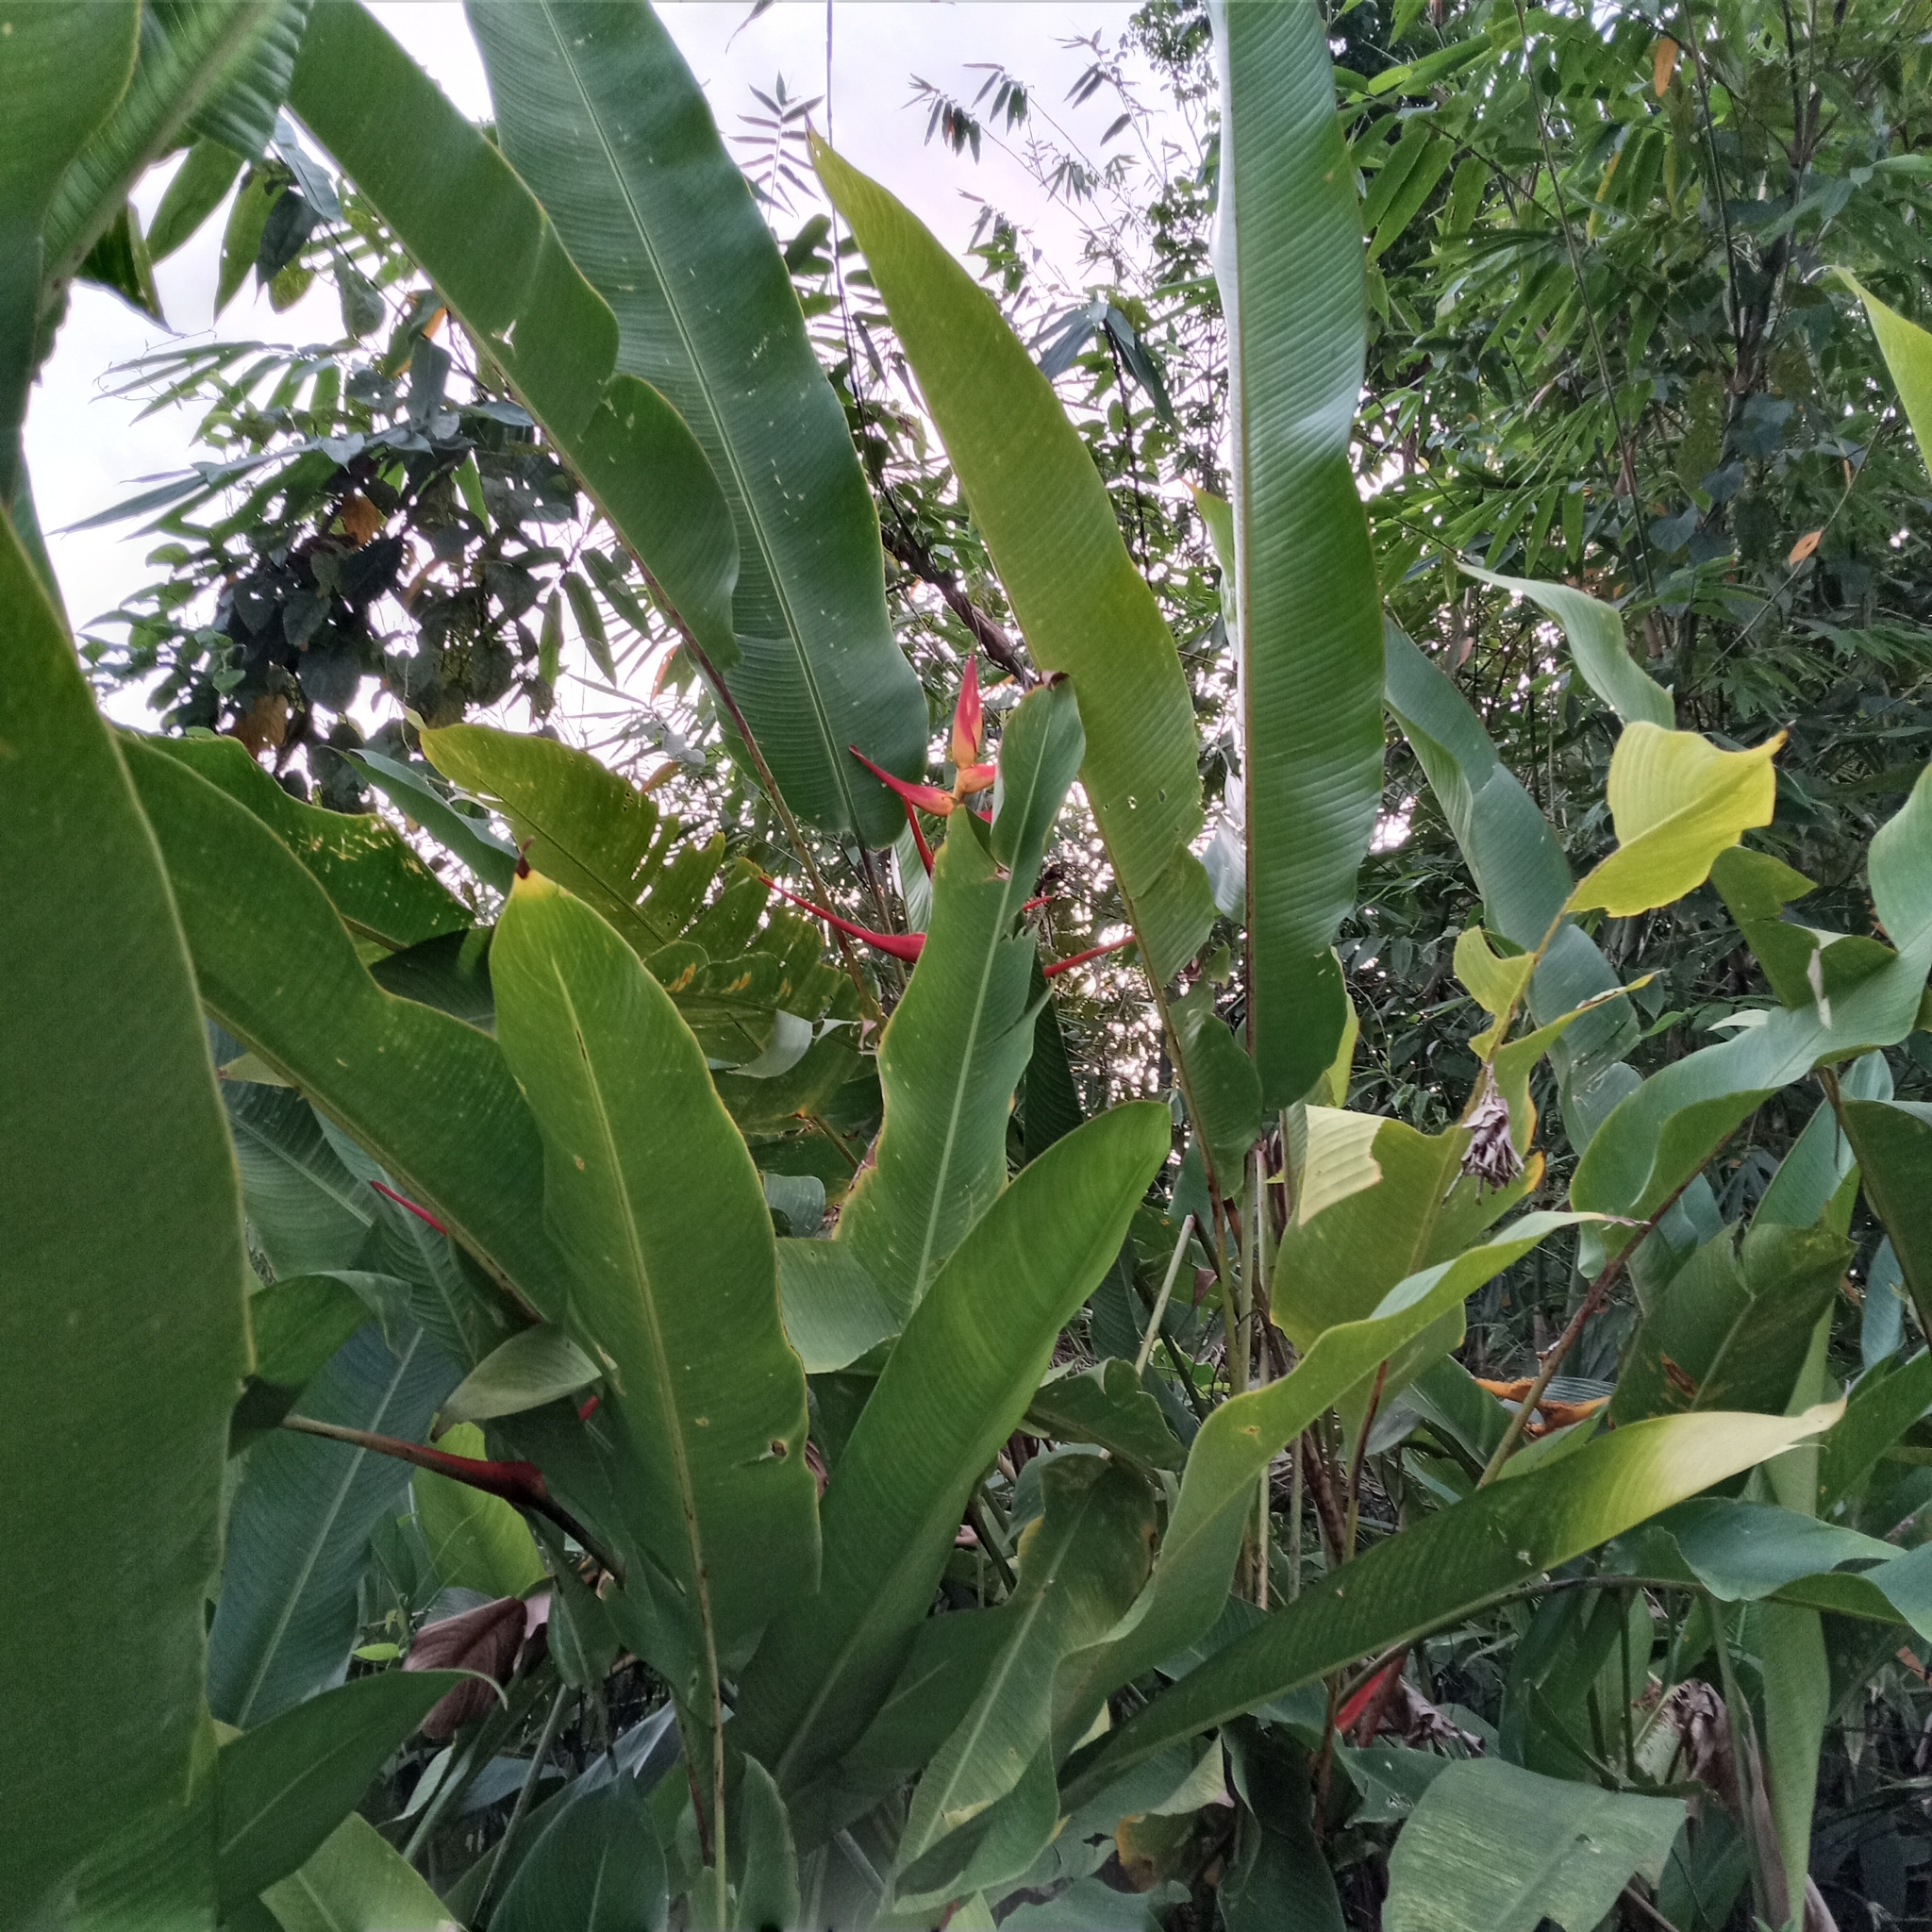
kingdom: Plantae
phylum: Tracheophyta
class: Liliopsida
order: Zingiberales
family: Heliconiaceae
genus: Heliconia
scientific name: Heliconia latispatha
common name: Expanded lobsterclaw
